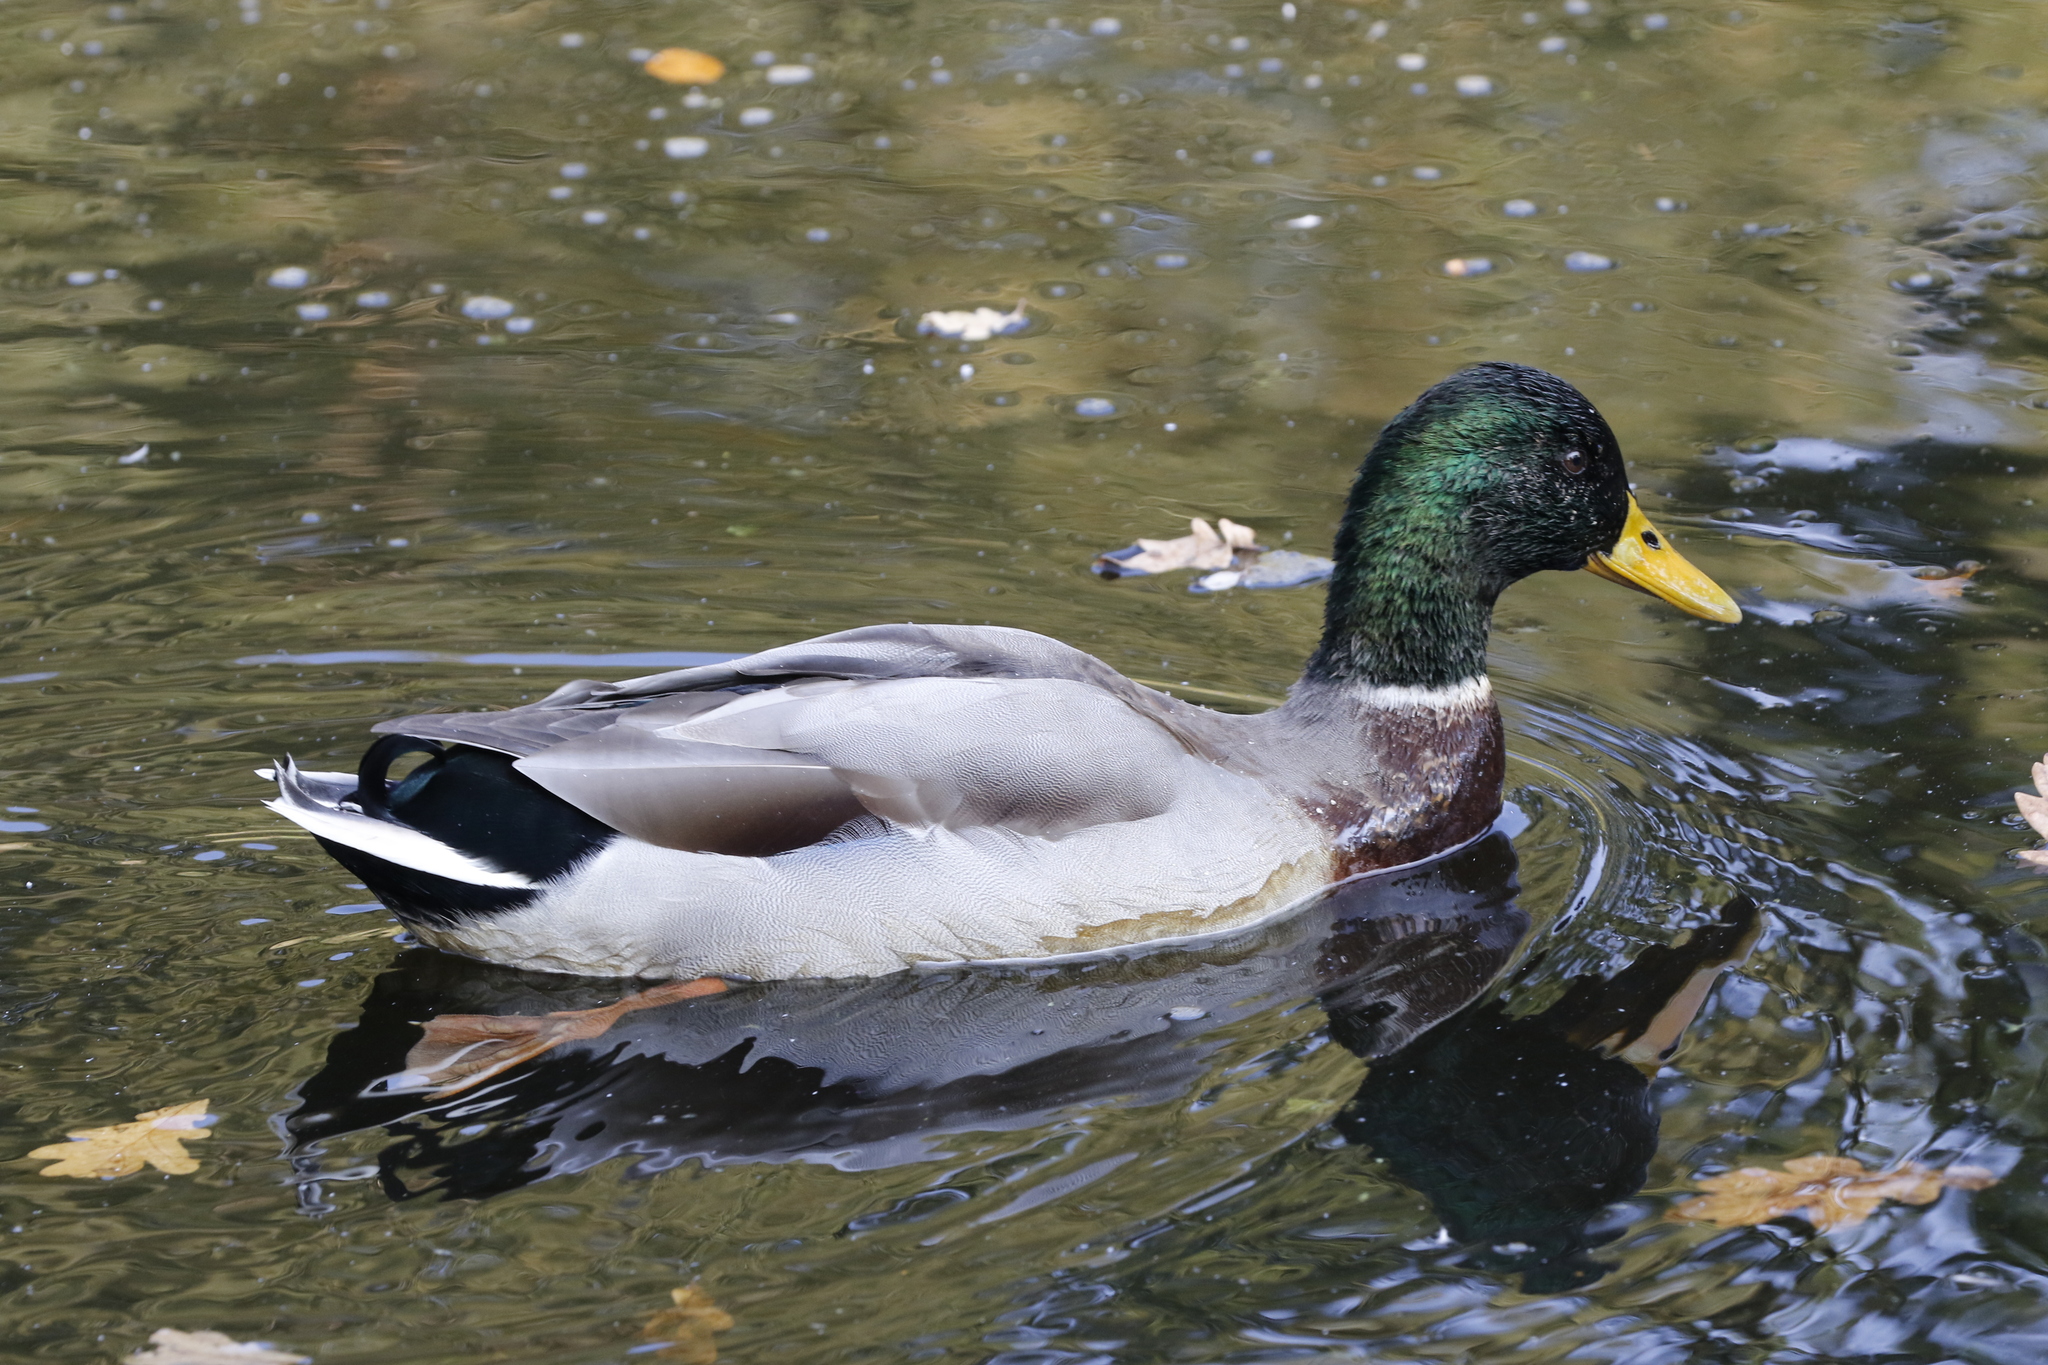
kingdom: Animalia
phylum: Chordata
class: Aves
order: Anseriformes
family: Anatidae
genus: Anas
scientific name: Anas platyrhynchos
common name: Mallard
